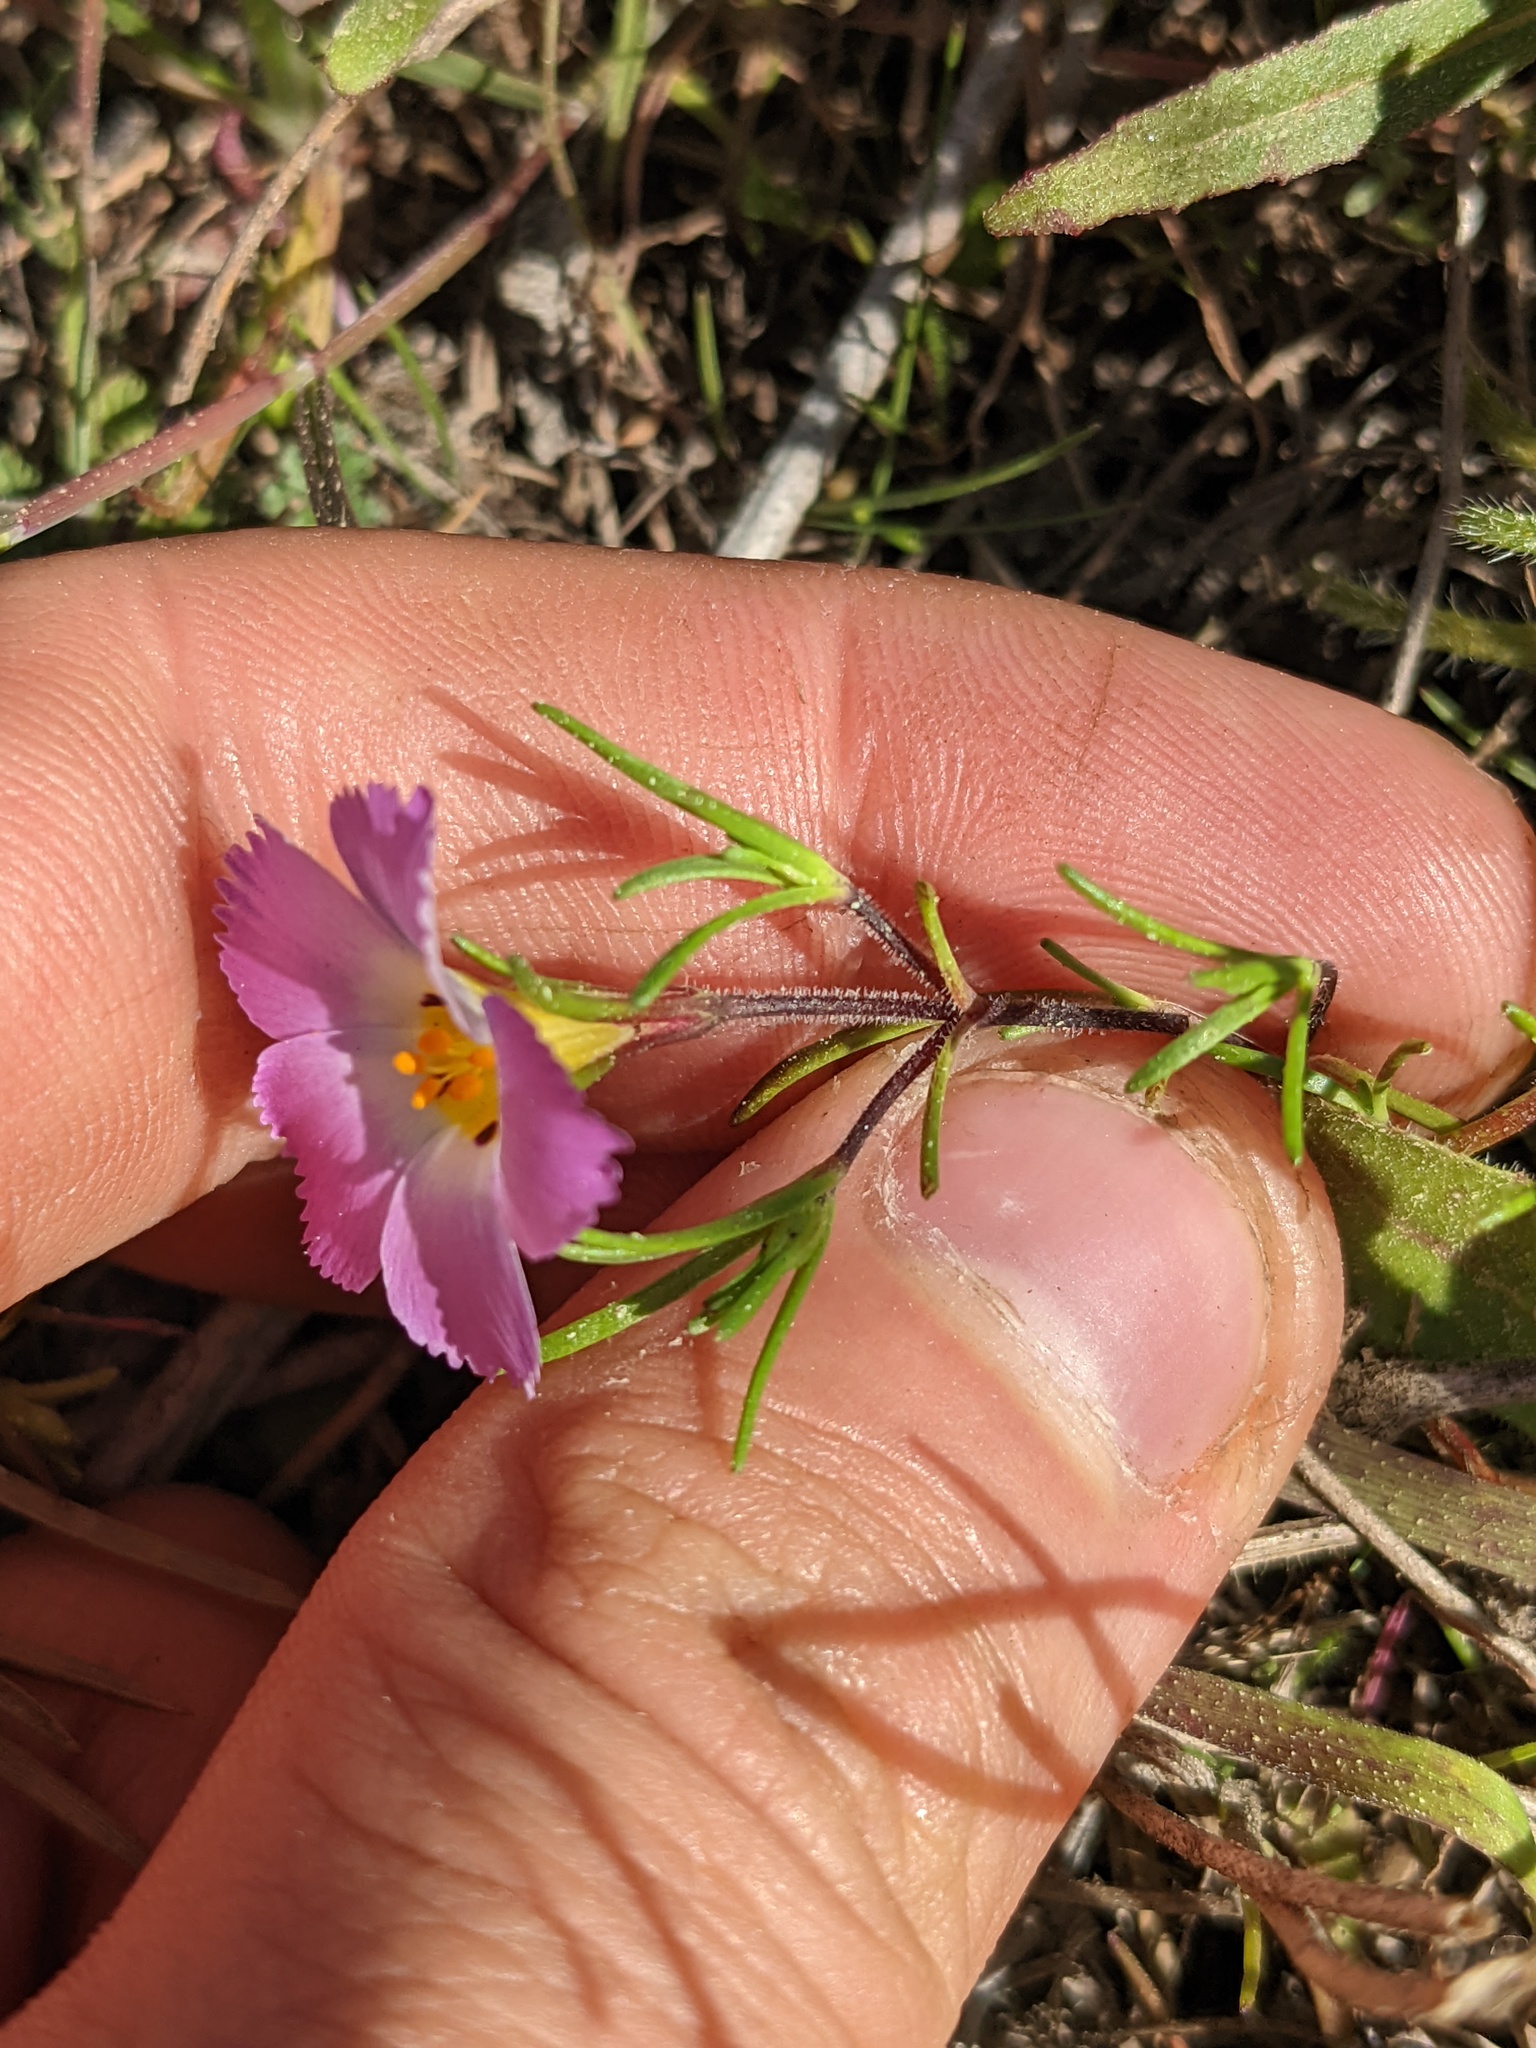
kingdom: Plantae
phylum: Tracheophyta
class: Magnoliopsida
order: Ericales
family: Polemoniaceae
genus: Linanthus
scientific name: Linanthus dianthiflorus
